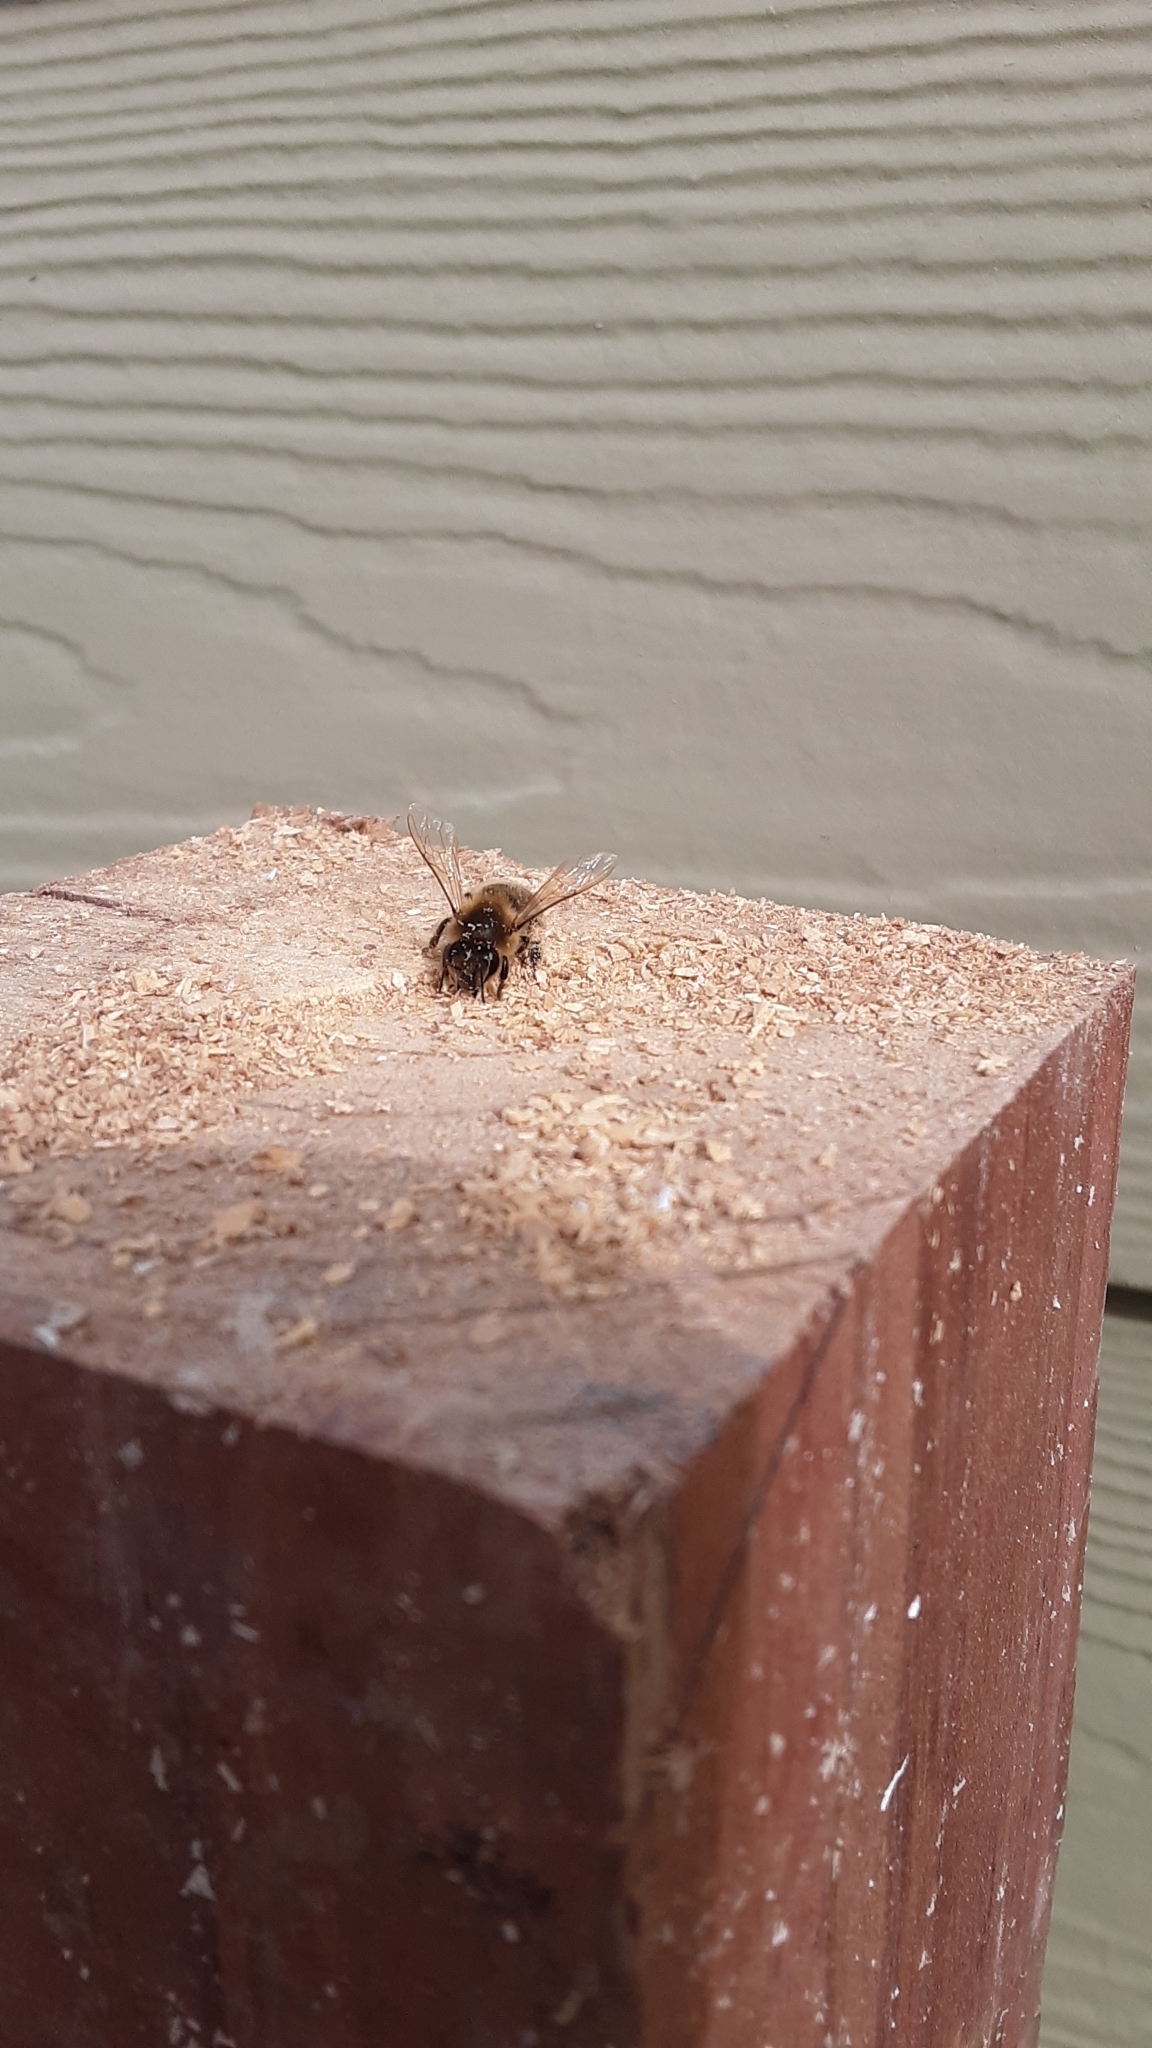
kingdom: Animalia
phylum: Arthropoda
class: Insecta
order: Hymenoptera
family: Apidae
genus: Apis
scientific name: Apis mellifera
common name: Honey bee
